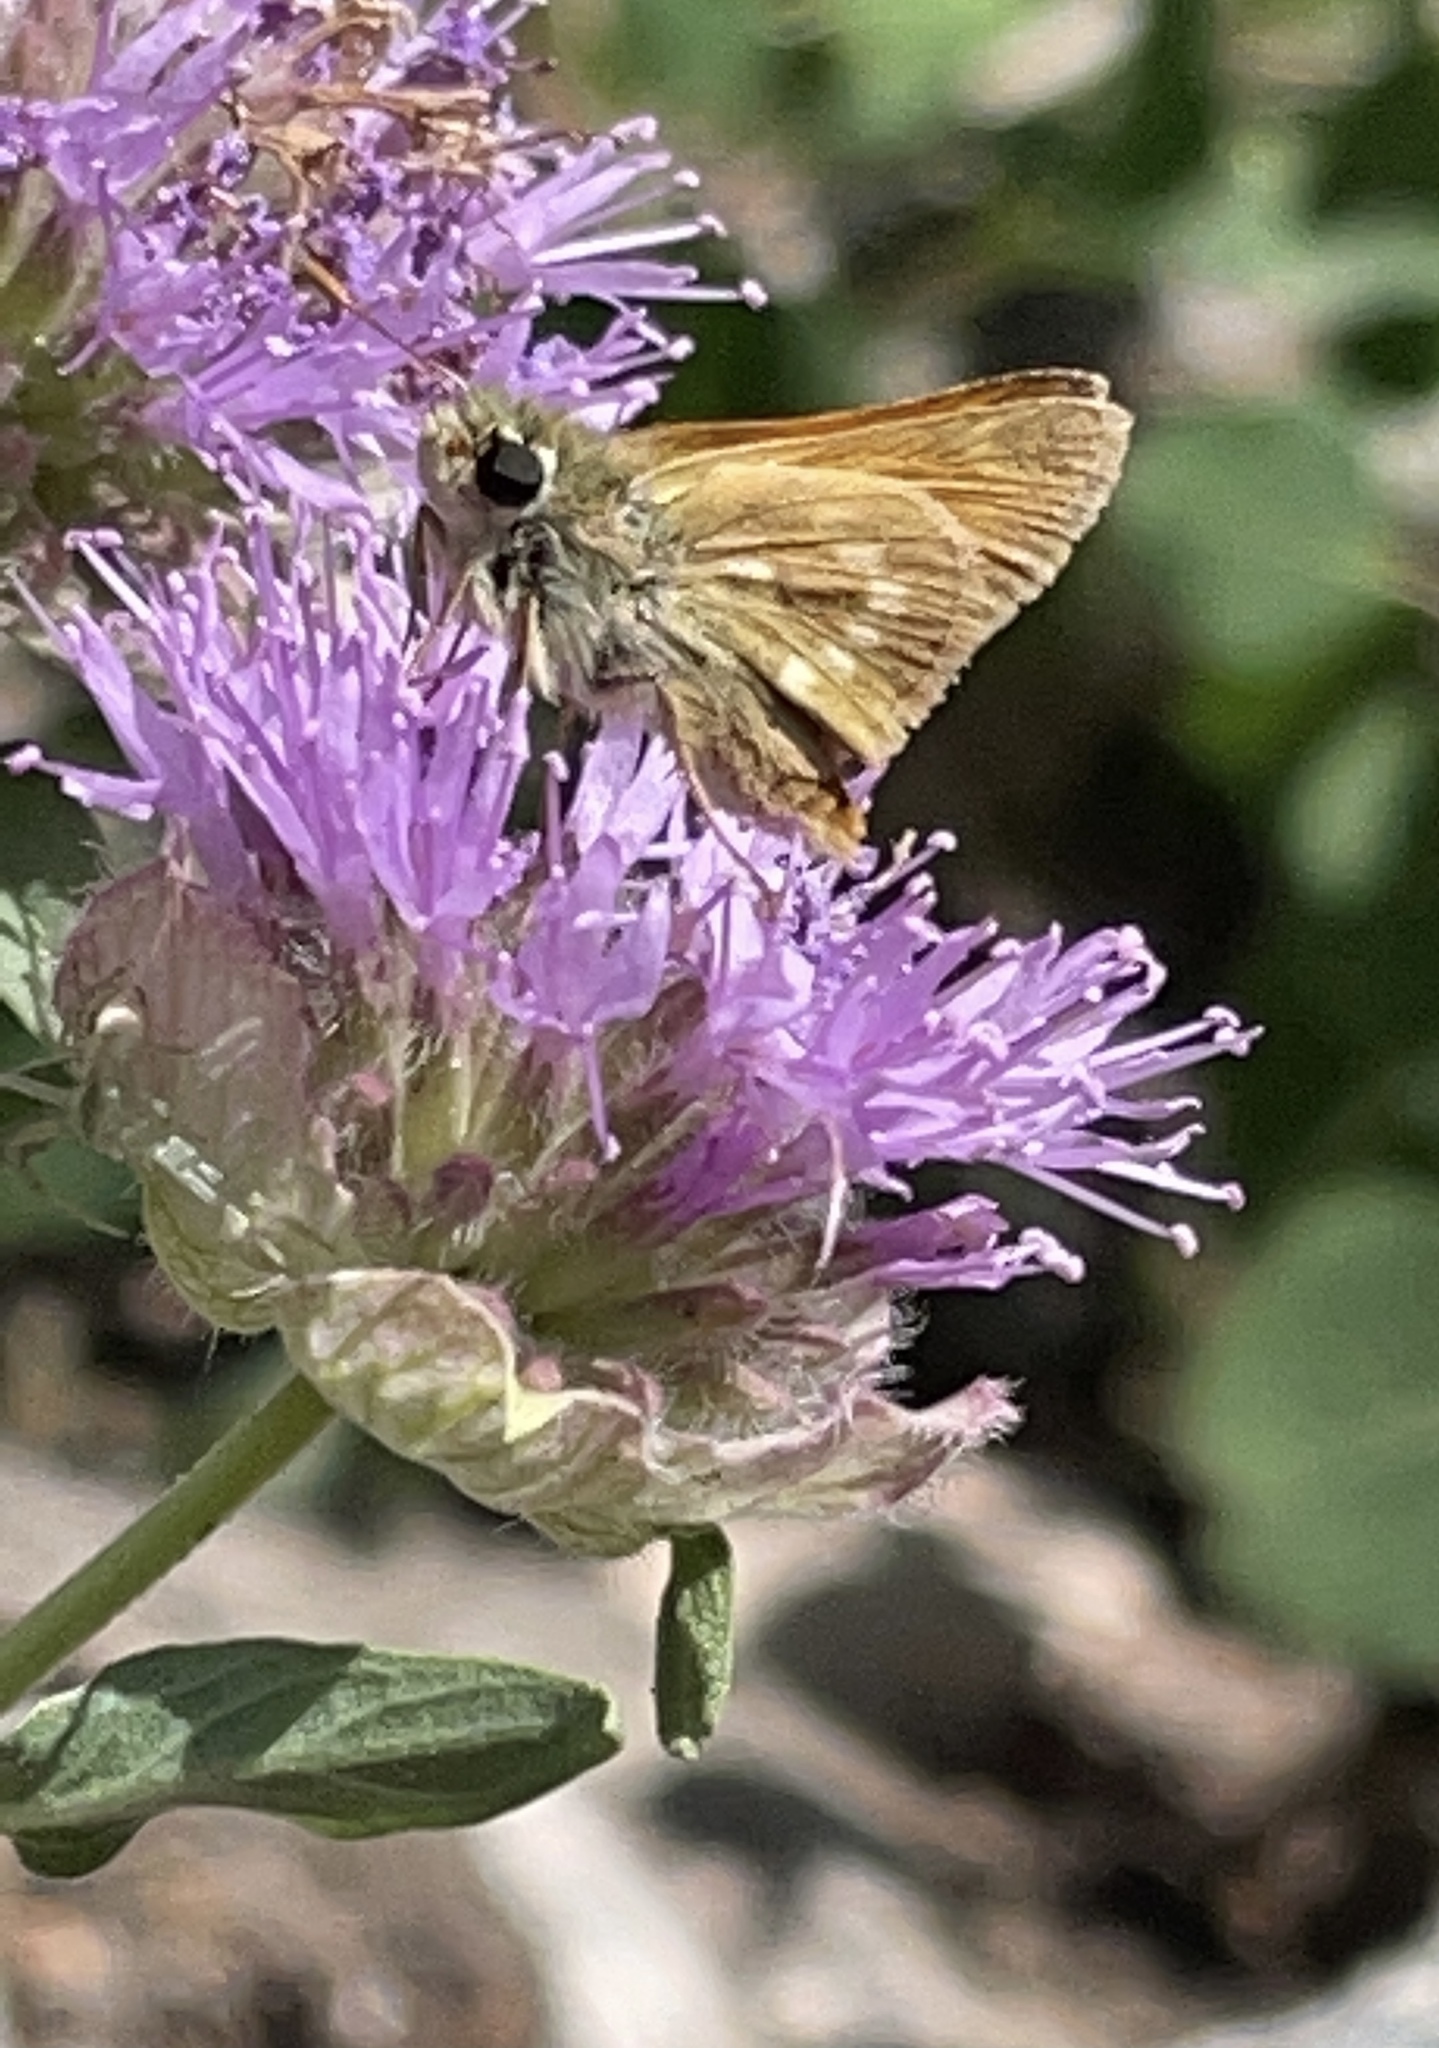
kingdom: Animalia
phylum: Arthropoda
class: Insecta
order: Lepidoptera
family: Hesperiidae
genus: Polites
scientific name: Polites mystic
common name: Long dash
